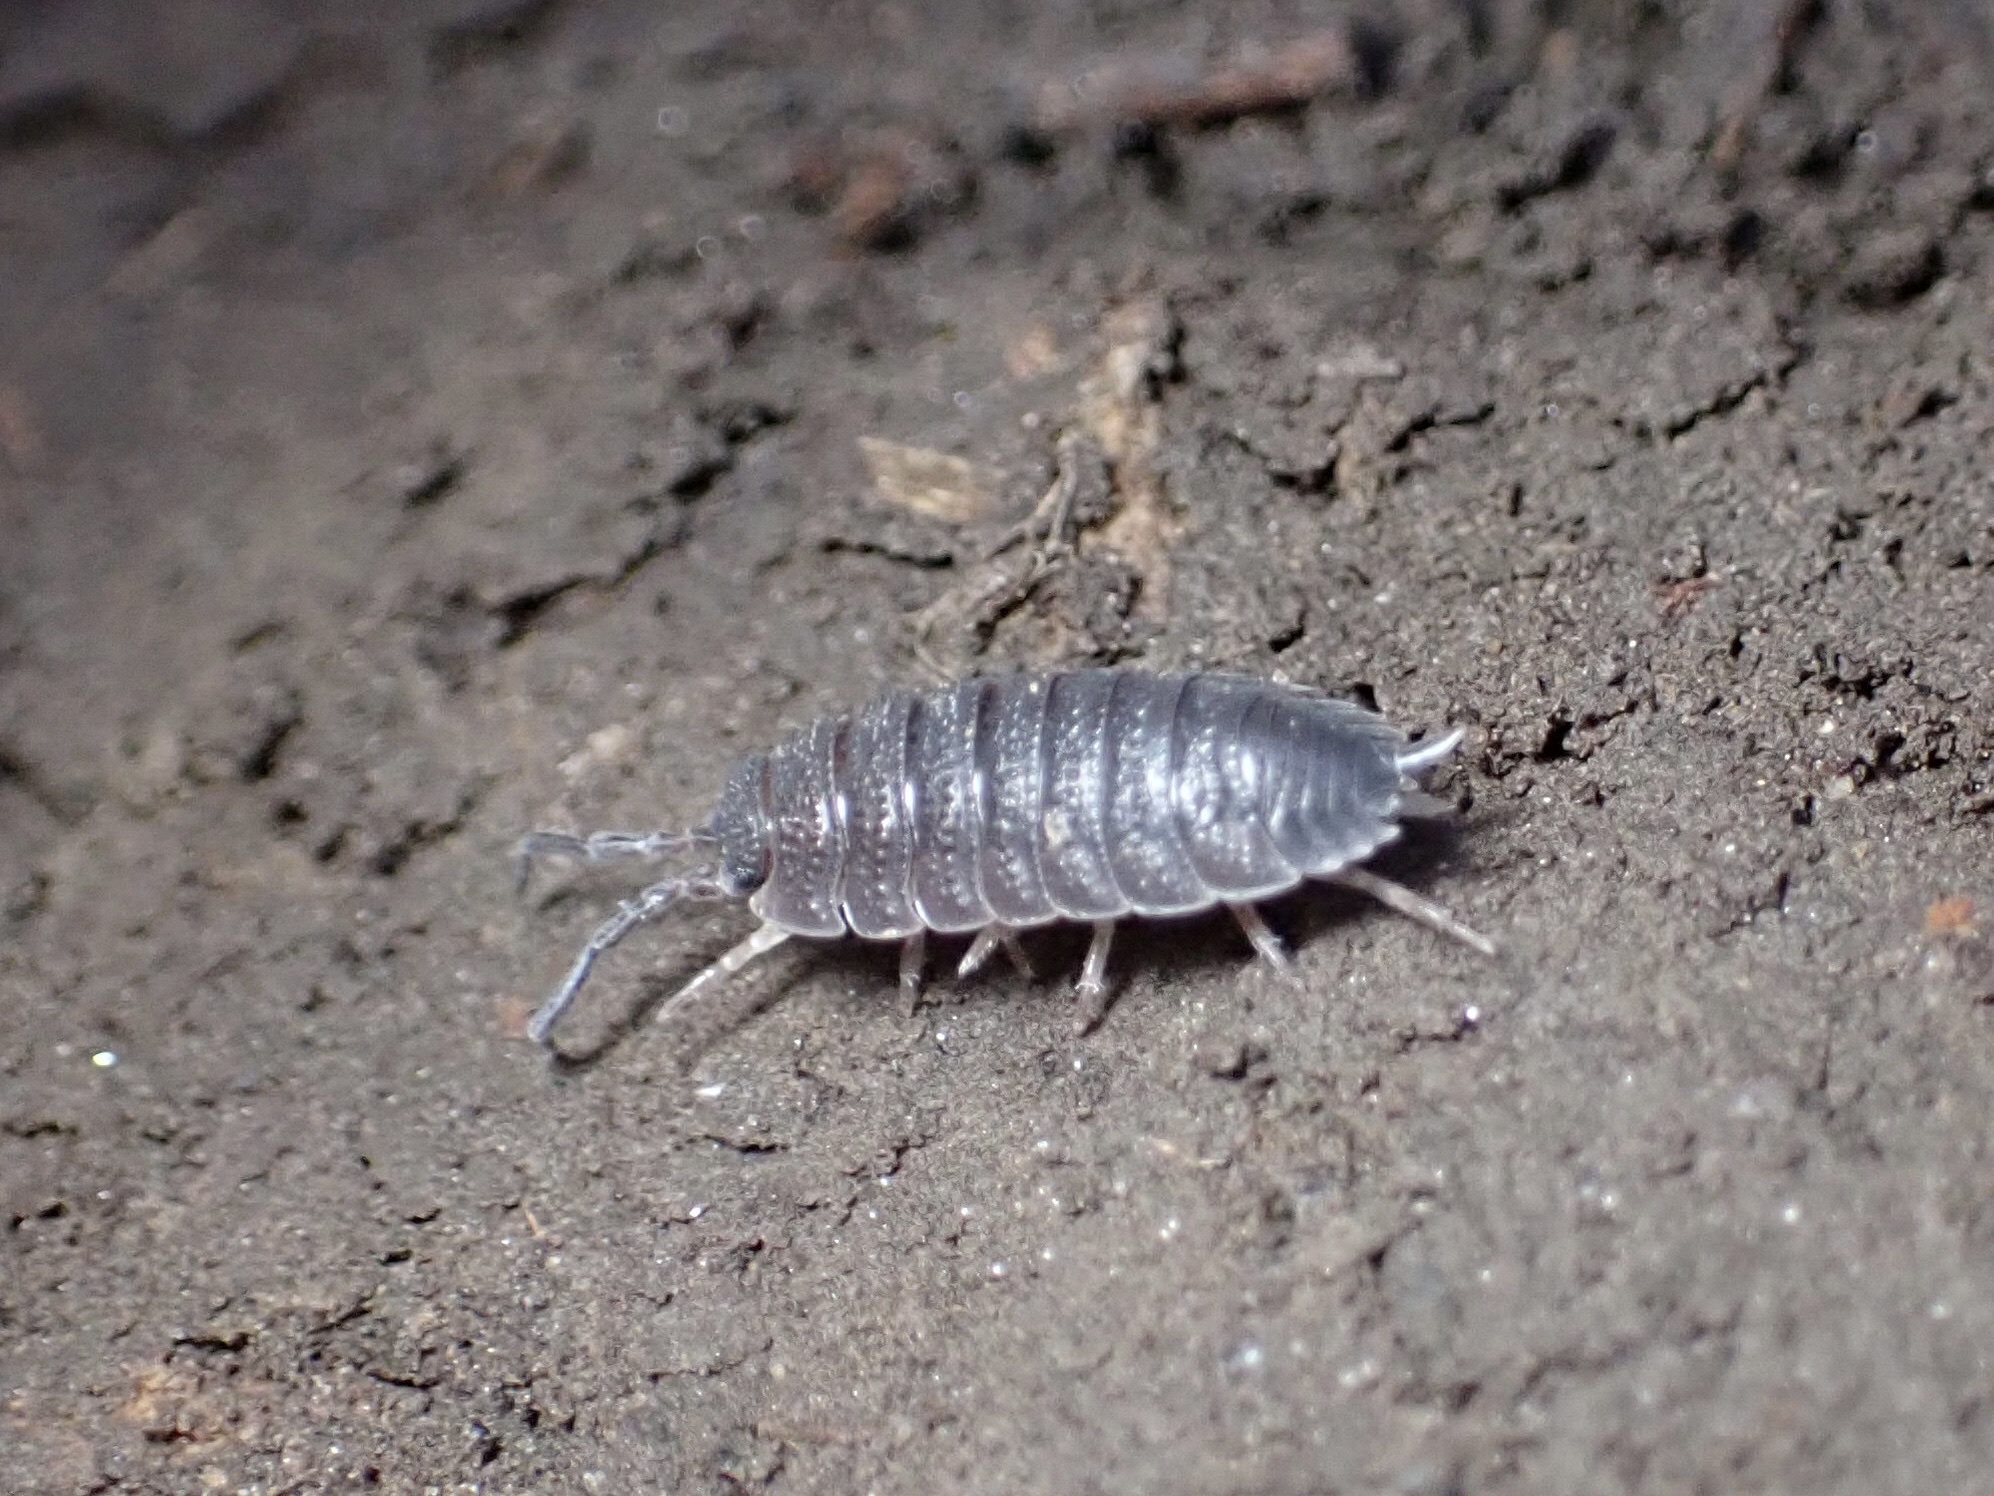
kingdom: Animalia
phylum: Arthropoda
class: Malacostraca
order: Isopoda
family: Porcellionidae
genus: Porcellio
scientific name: Porcellio scaber
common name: Common rough woodlouse
